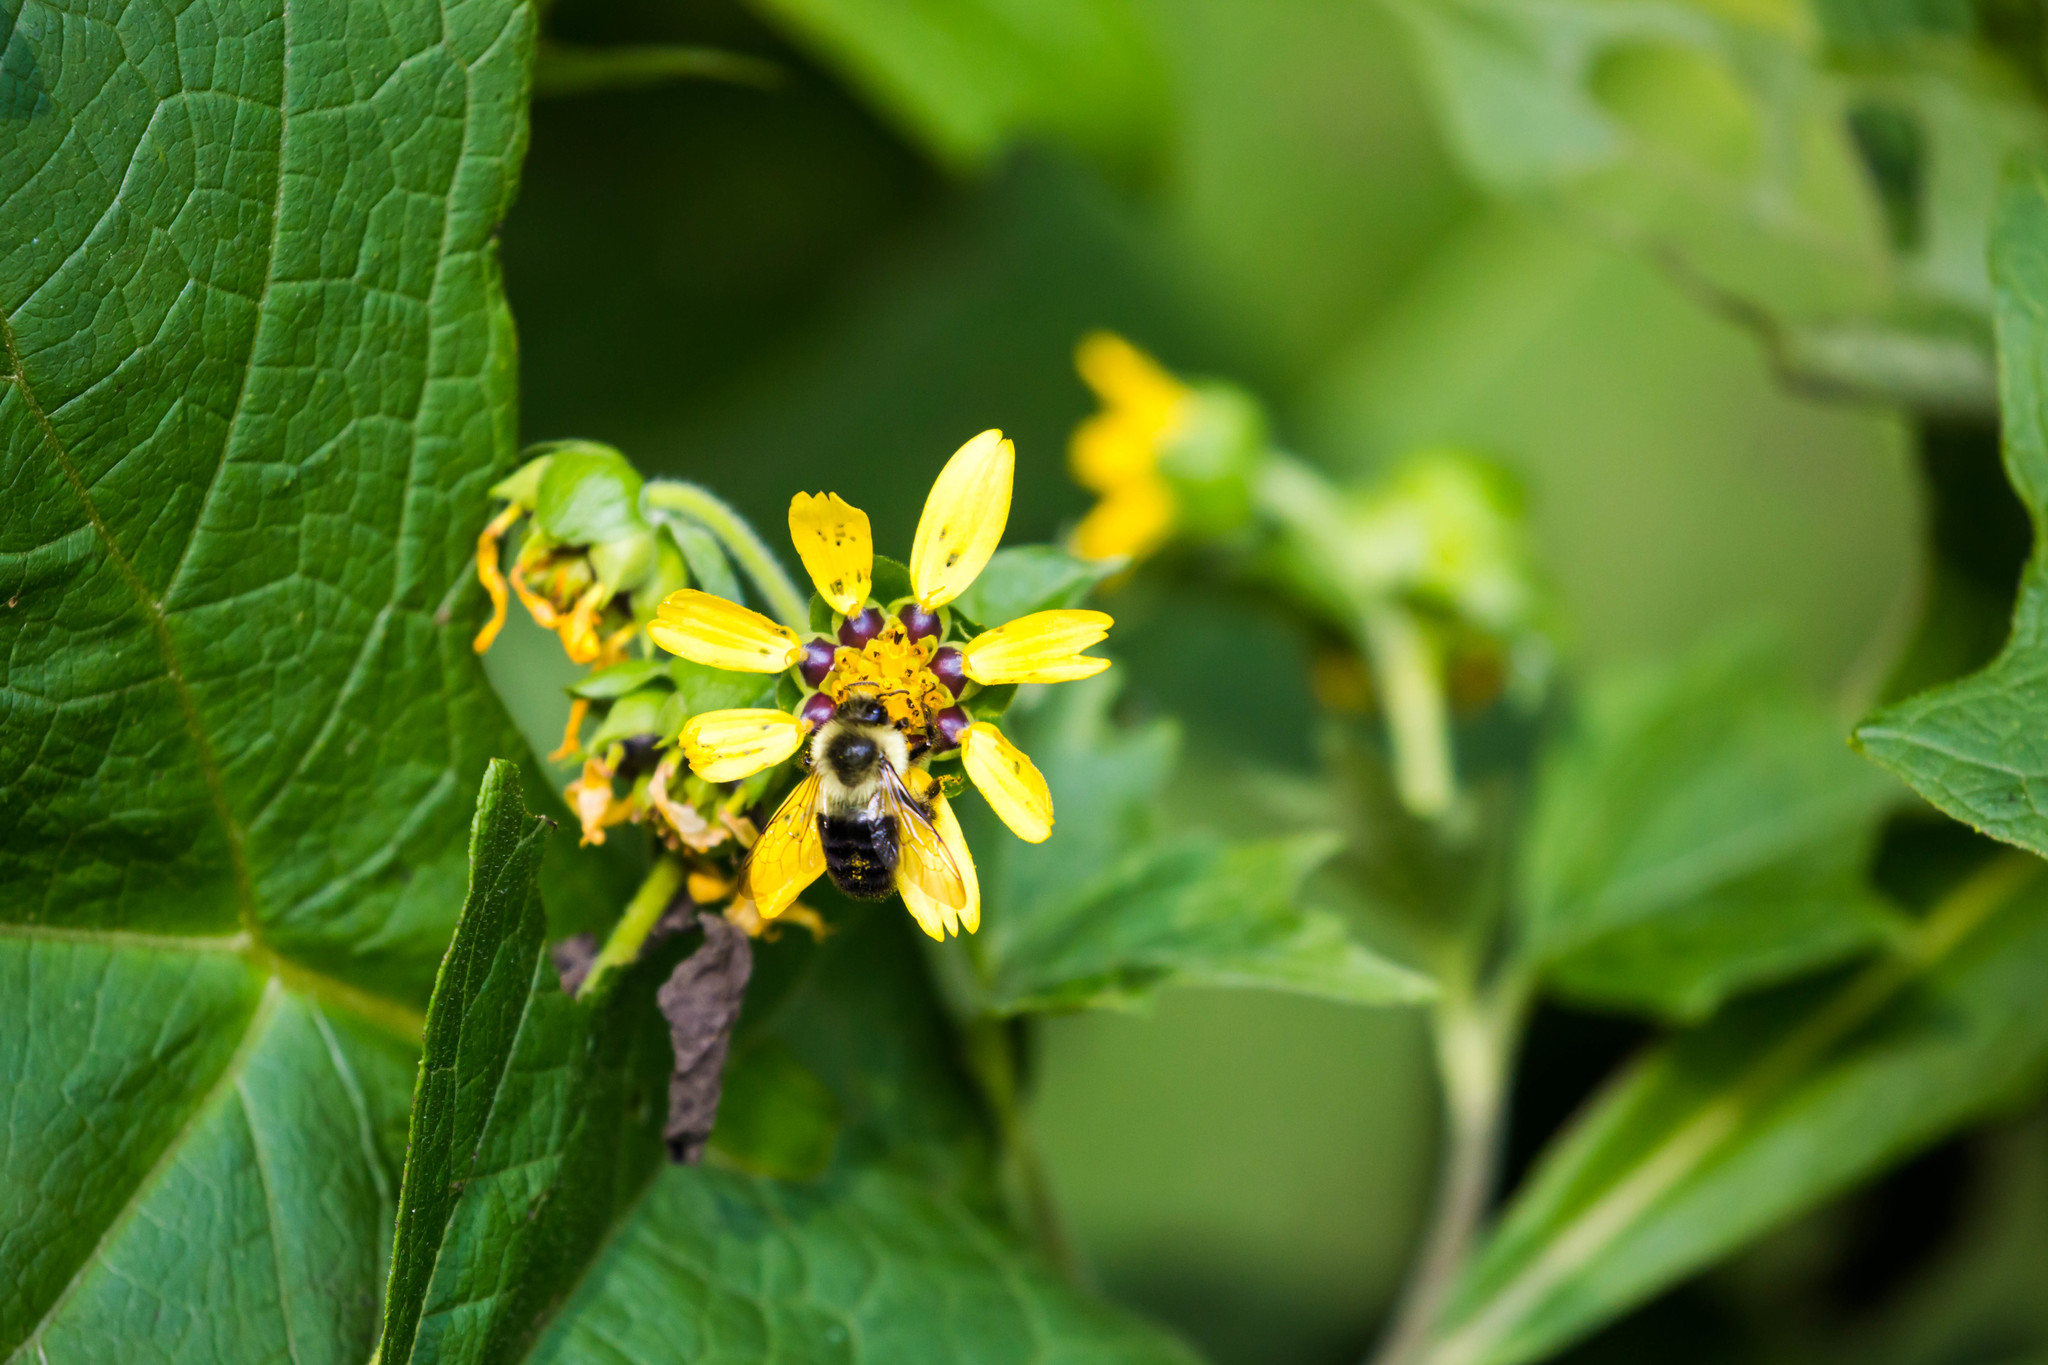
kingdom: Animalia
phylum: Arthropoda
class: Insecta
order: Hymenoptera
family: Apidae
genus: Bombus
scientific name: Bombus impatiens
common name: Common eastern bumble bee
